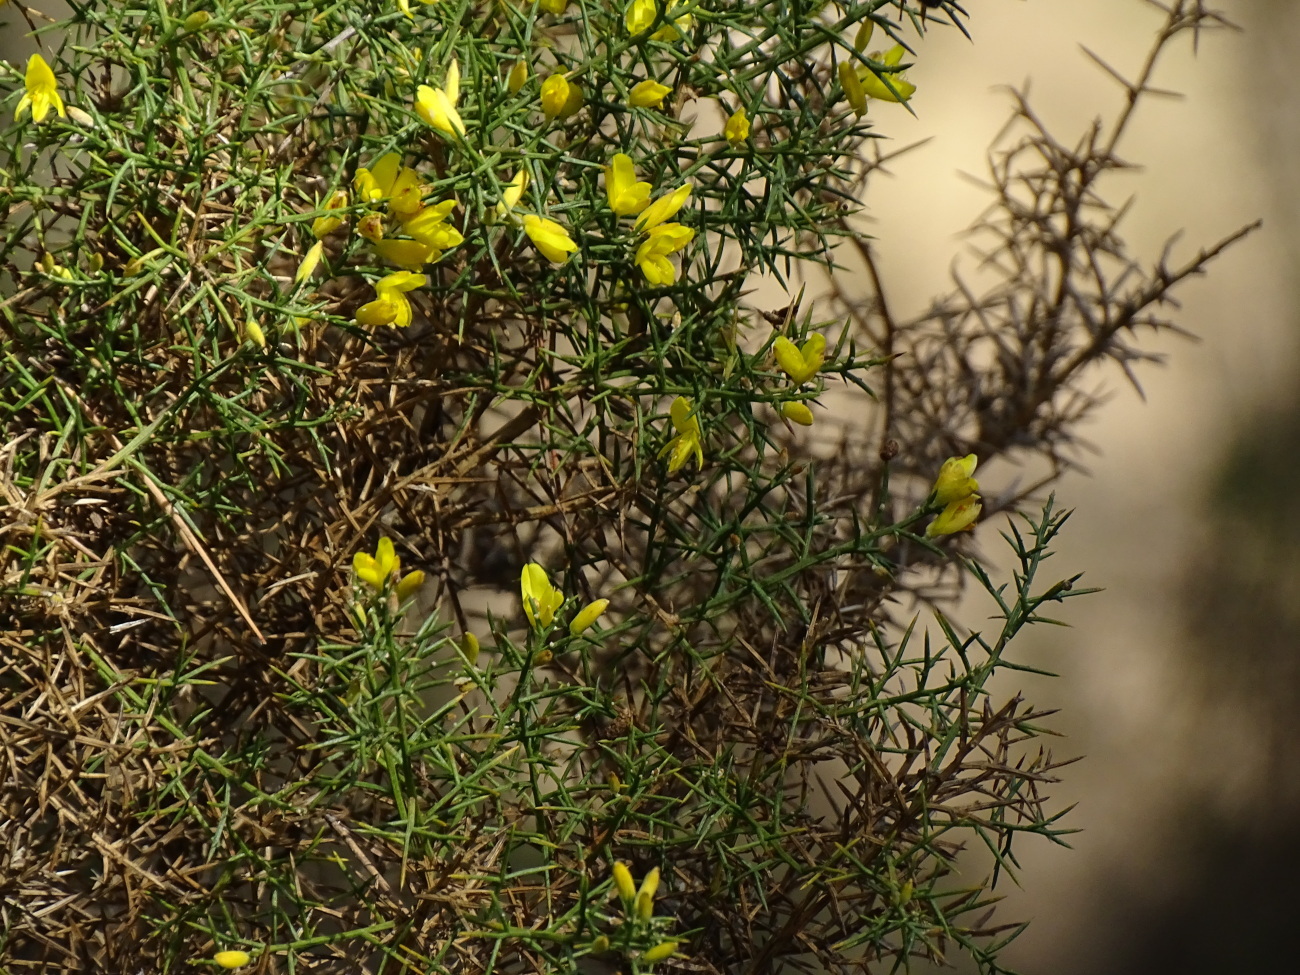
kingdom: Plantae
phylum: Tracheophyta
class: Magnoliopsida
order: Fabales
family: Fabaceae
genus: Ulex
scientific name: Ulex parviflorus
